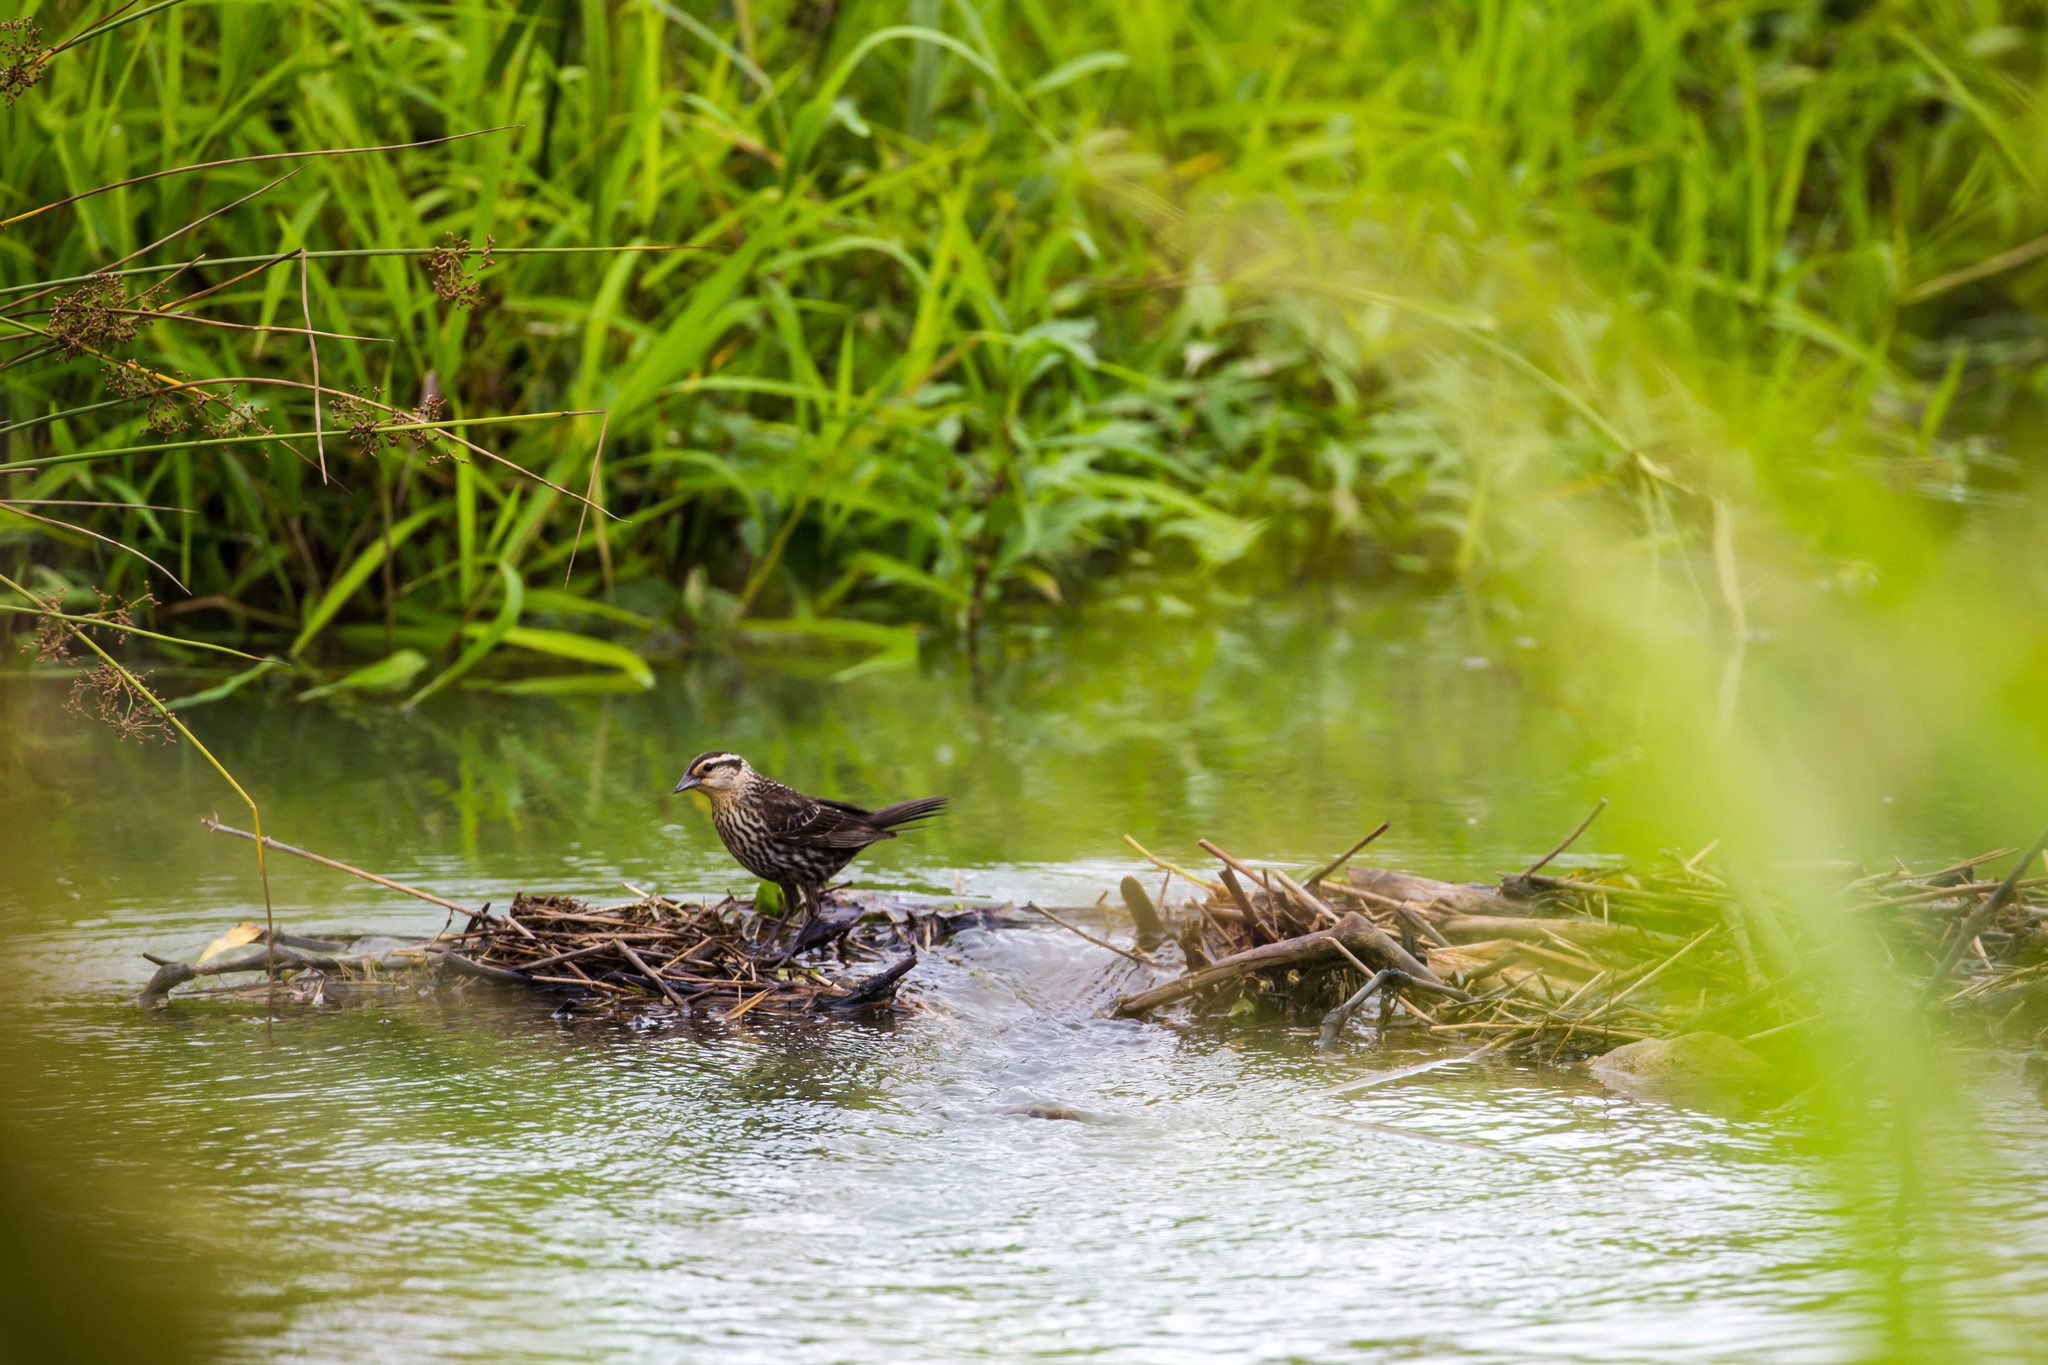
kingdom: Animalia
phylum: Chordata
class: Aves
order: Passeriformes
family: Icteridae
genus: Agelaius
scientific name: Agelaius phoeniceus
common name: Red-winged blackbird
